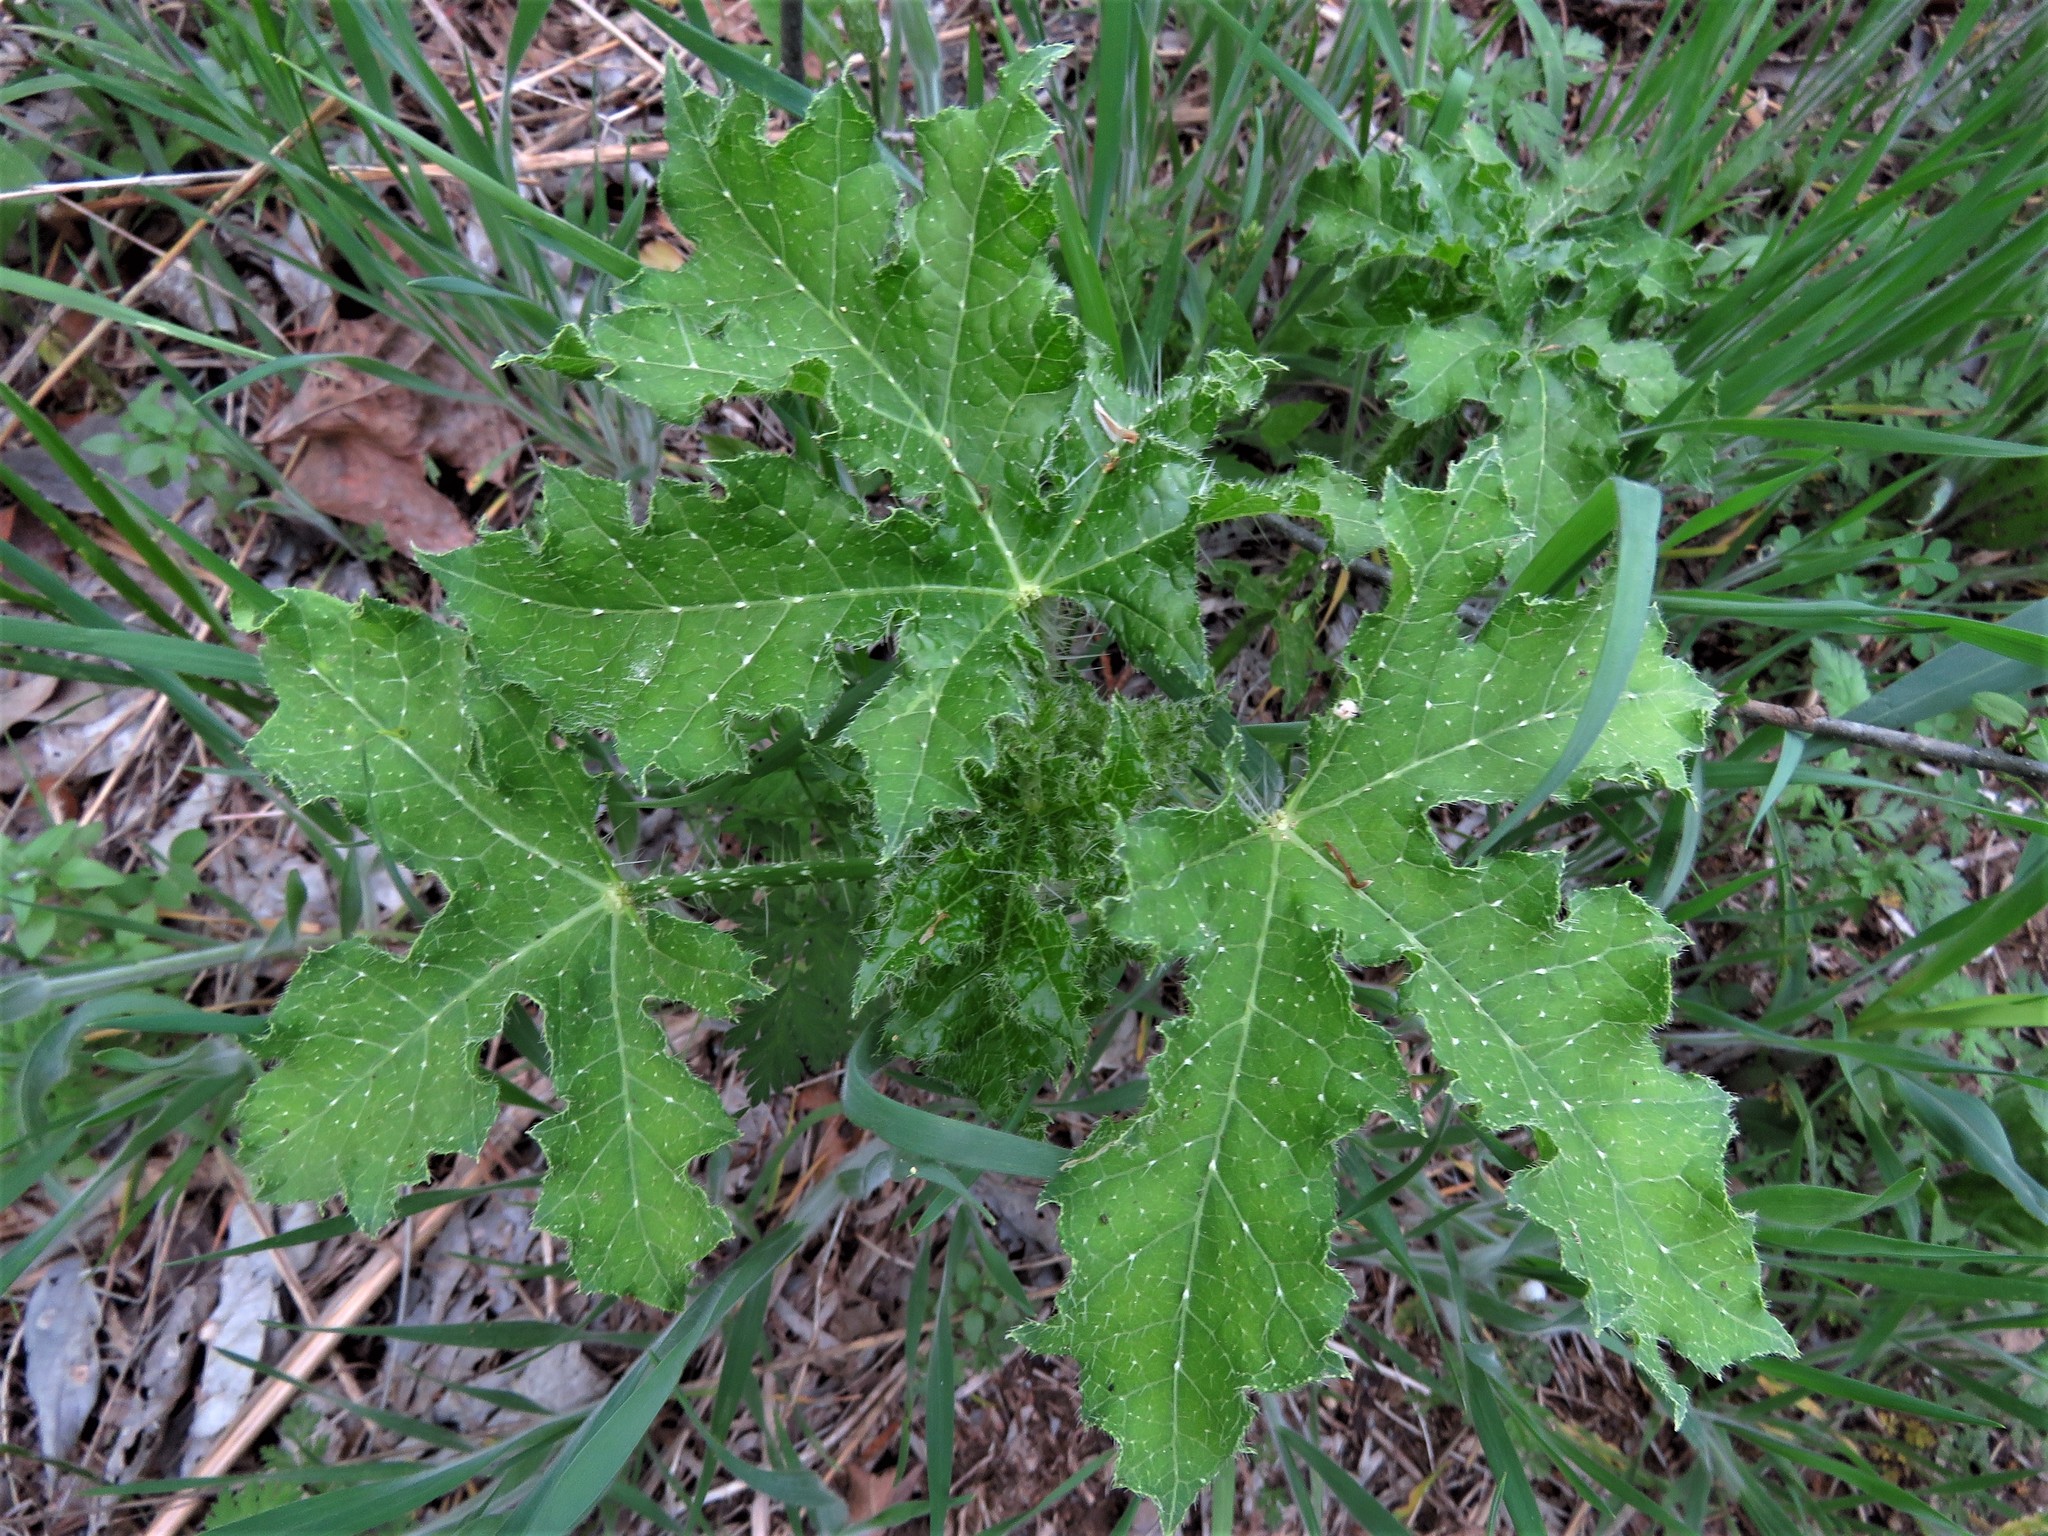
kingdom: Plantae
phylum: Tracheophyta
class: Magnoliopsida
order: Malpighiales
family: Euphorbiaceae
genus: Cnidoscolus
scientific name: Cnidoscolus texanus
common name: Texas bull-nettle
